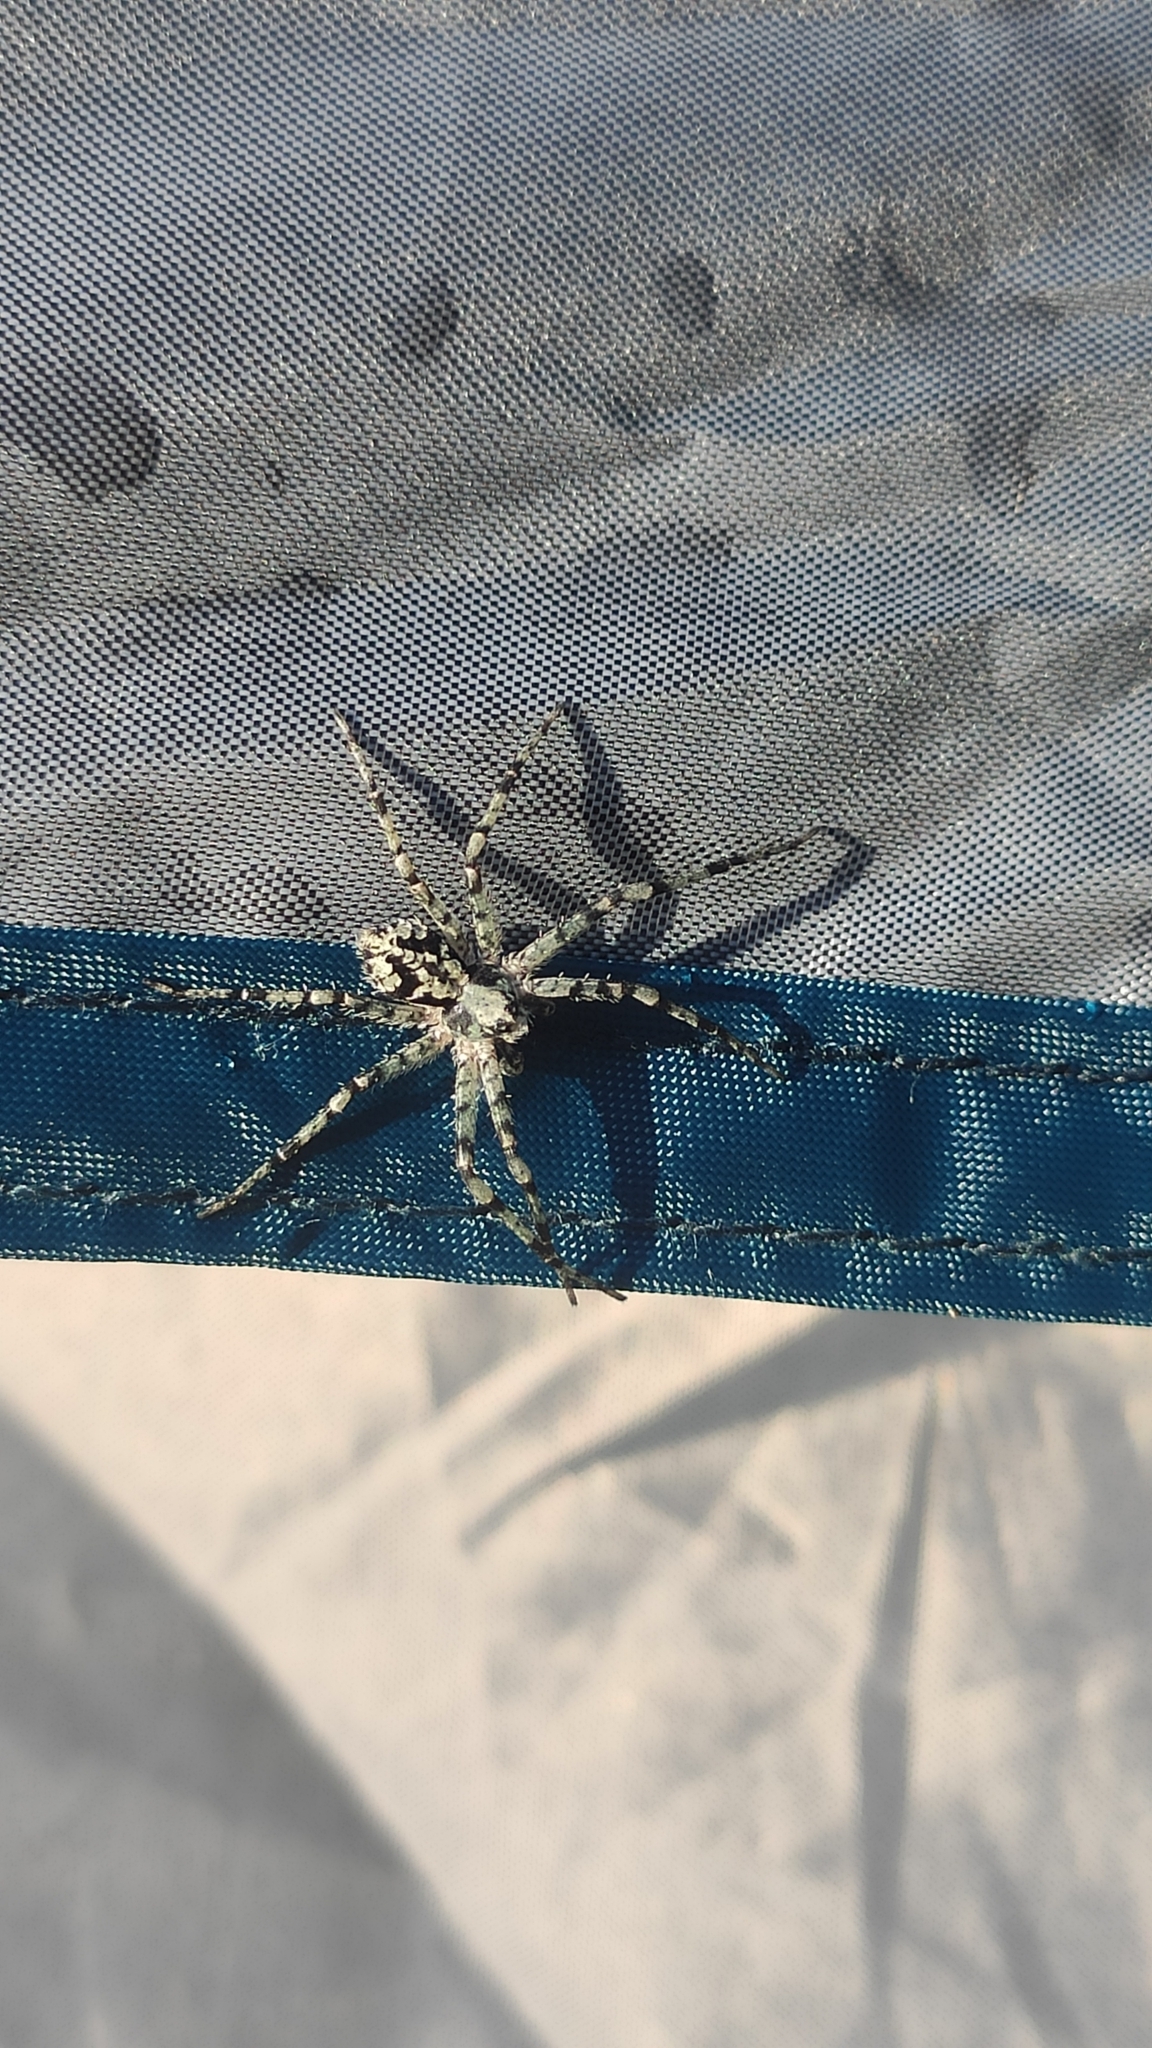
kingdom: Animalia
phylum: Arthropoda
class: Arachnida
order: Araneae
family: Philodromidae
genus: Philodromus
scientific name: Philodromus margaritatus
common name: Lichen running-spider
